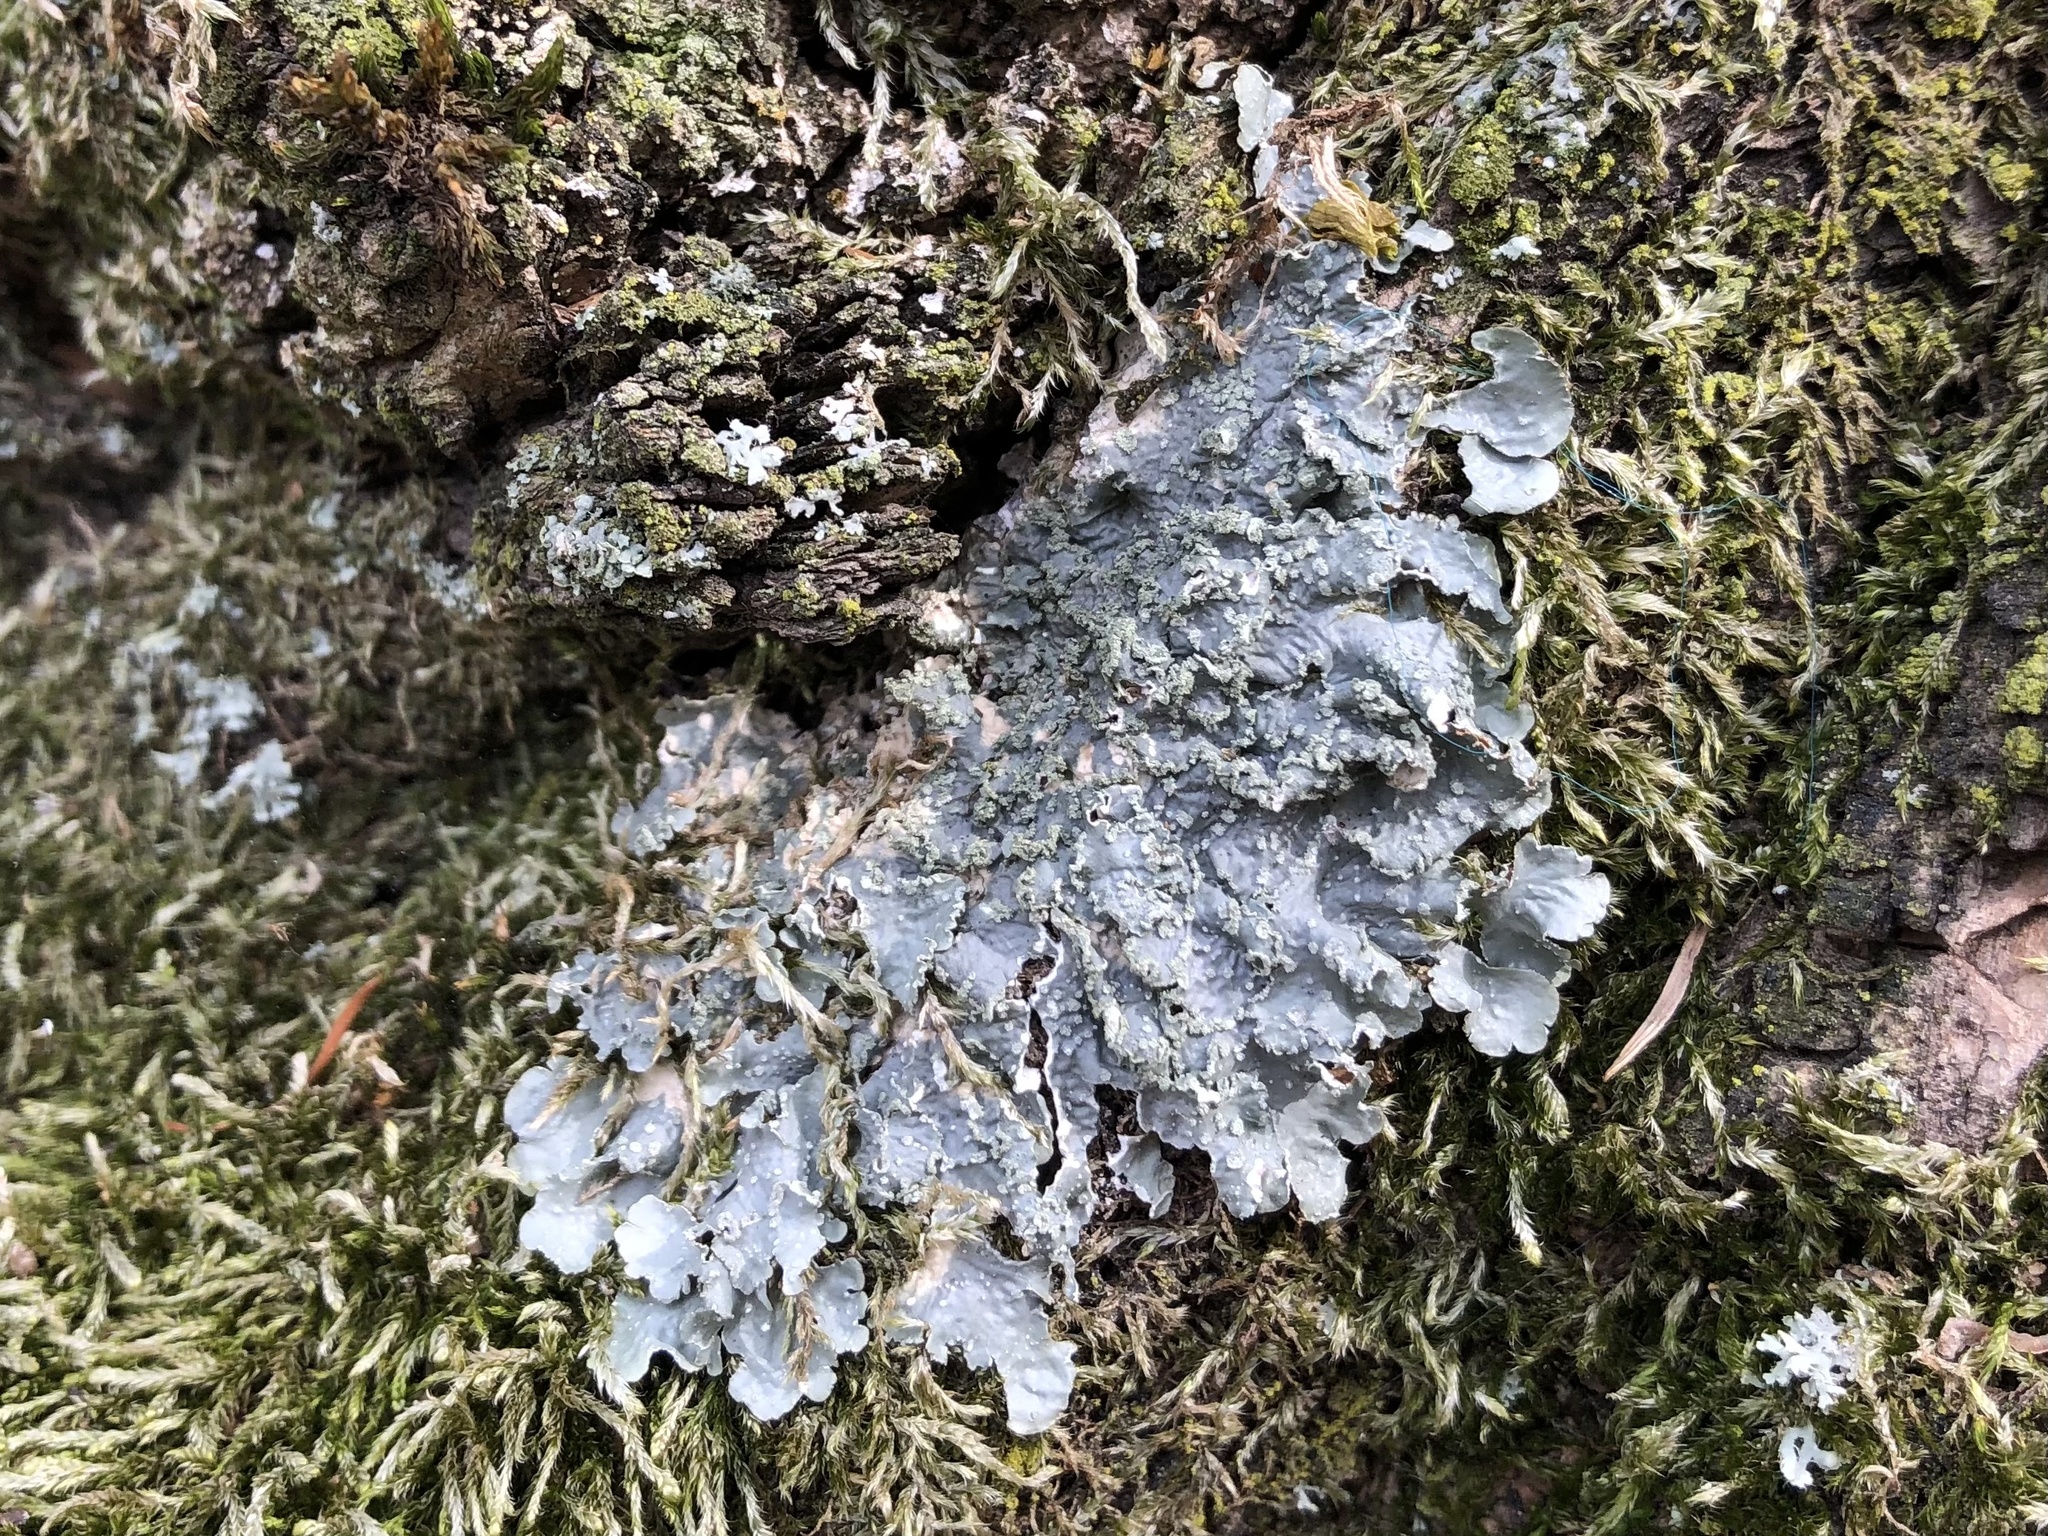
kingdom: Fungi
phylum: Ascomycota
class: Lecanoromycetes
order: Lecanorales
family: Parmeliaceae
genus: Punctelia
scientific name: Punctelia
